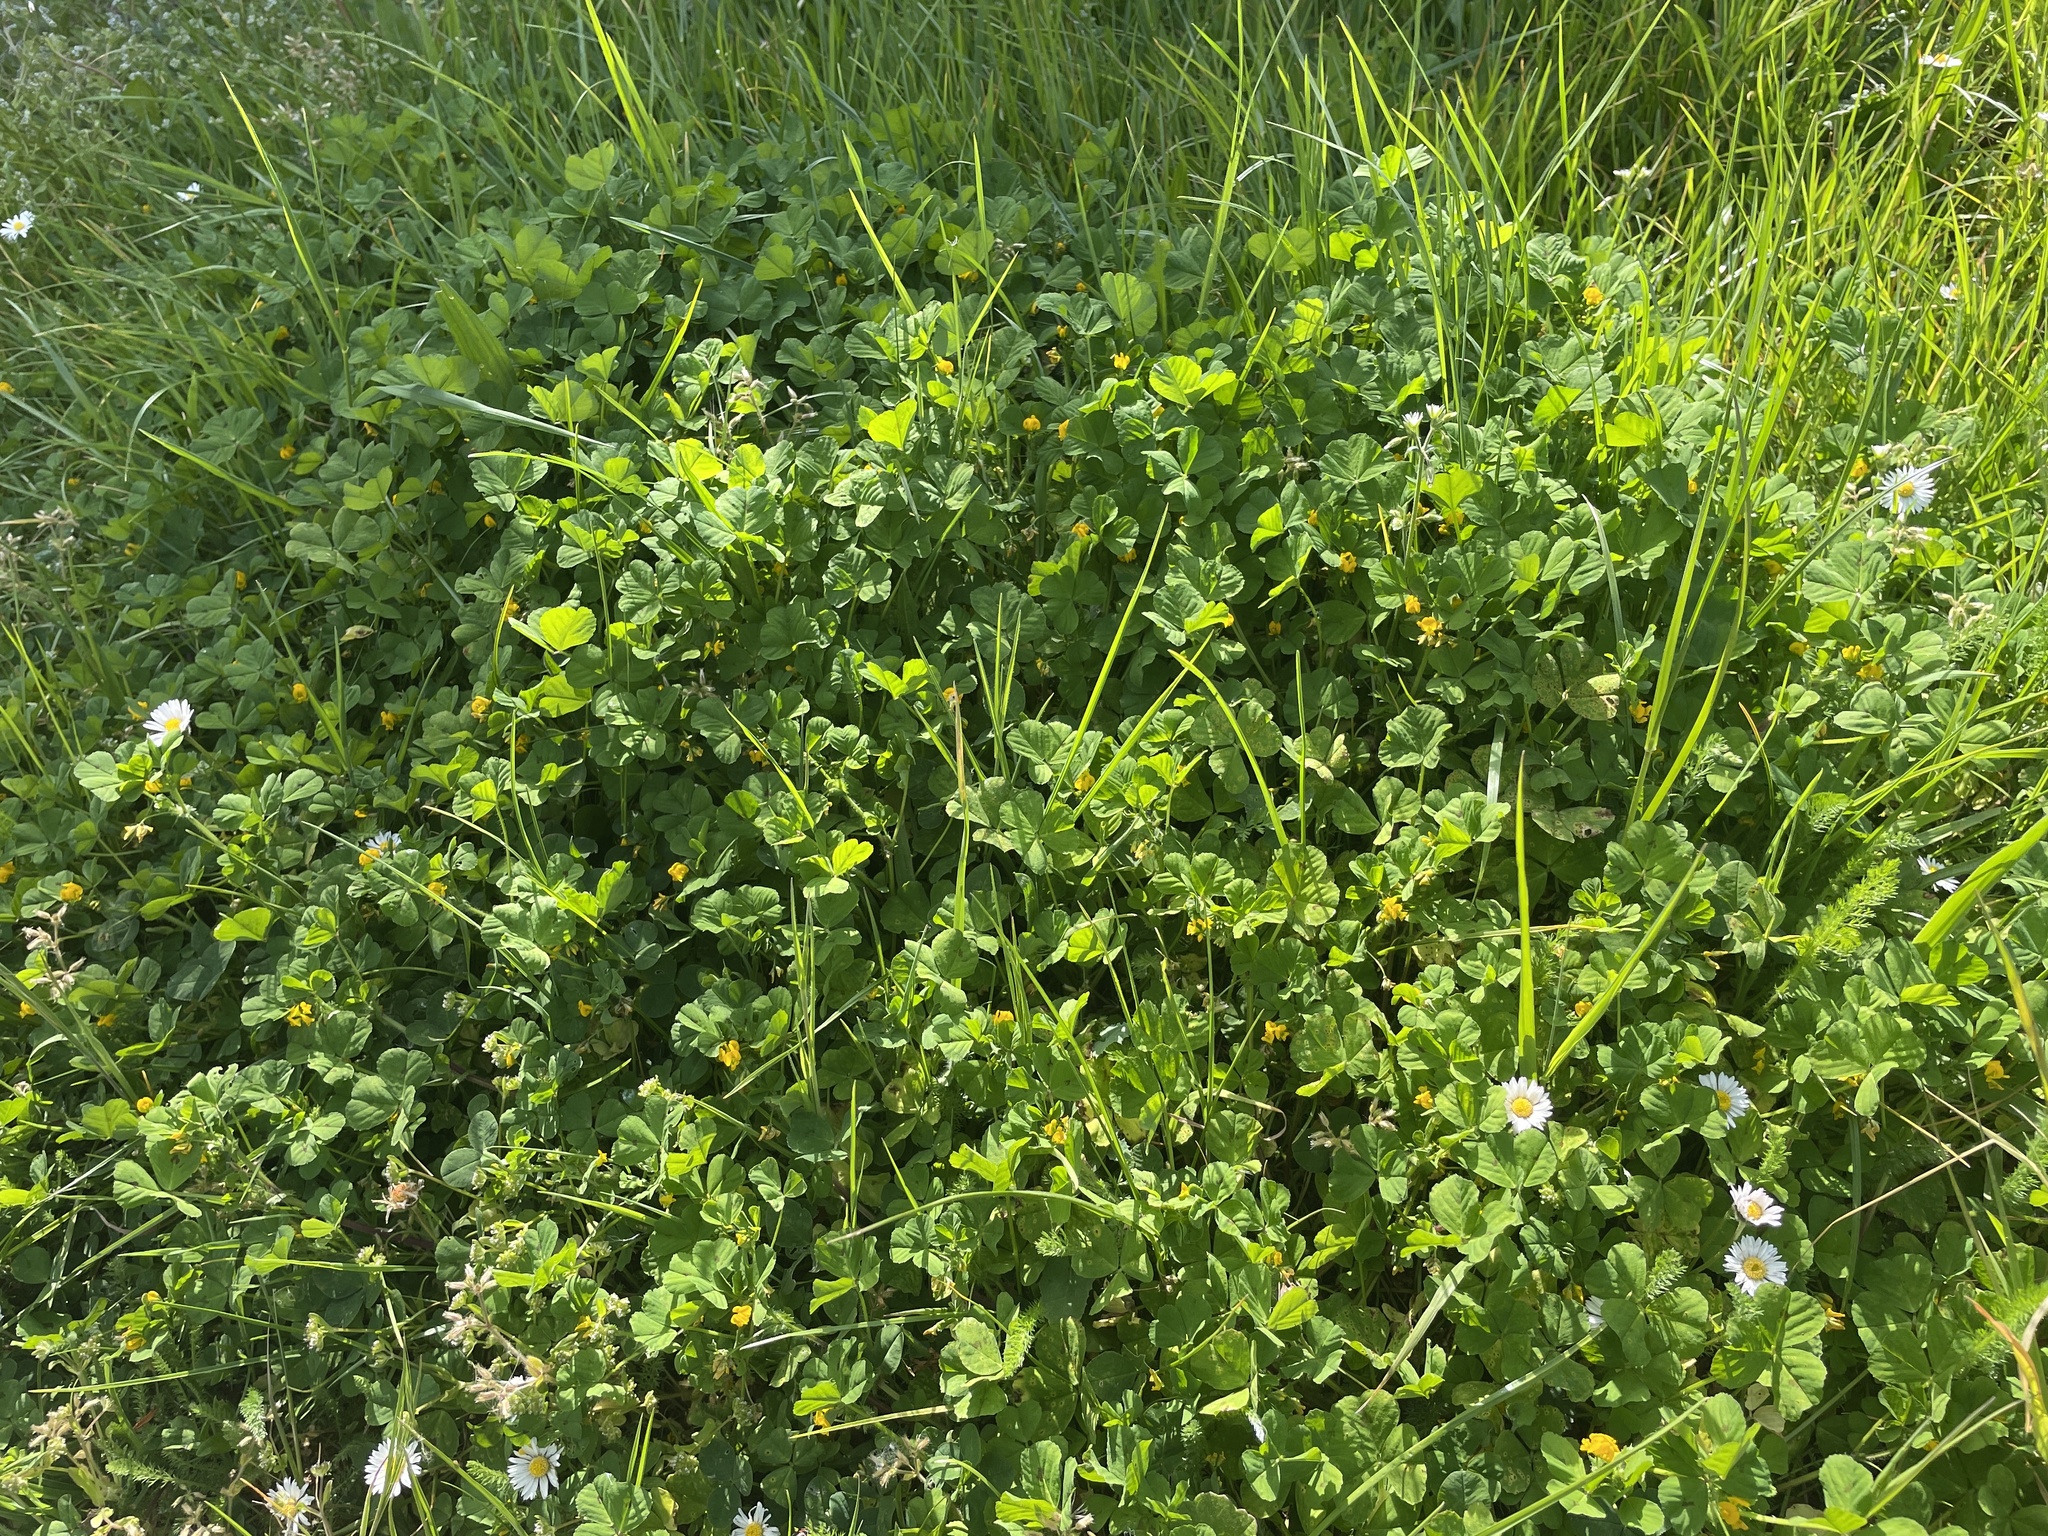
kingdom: Plantae
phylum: Tracheophyta
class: Magnoliopsida
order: Fabales
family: Fabaceae
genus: Medicago
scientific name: Medicago arabica
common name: Spotted medick
